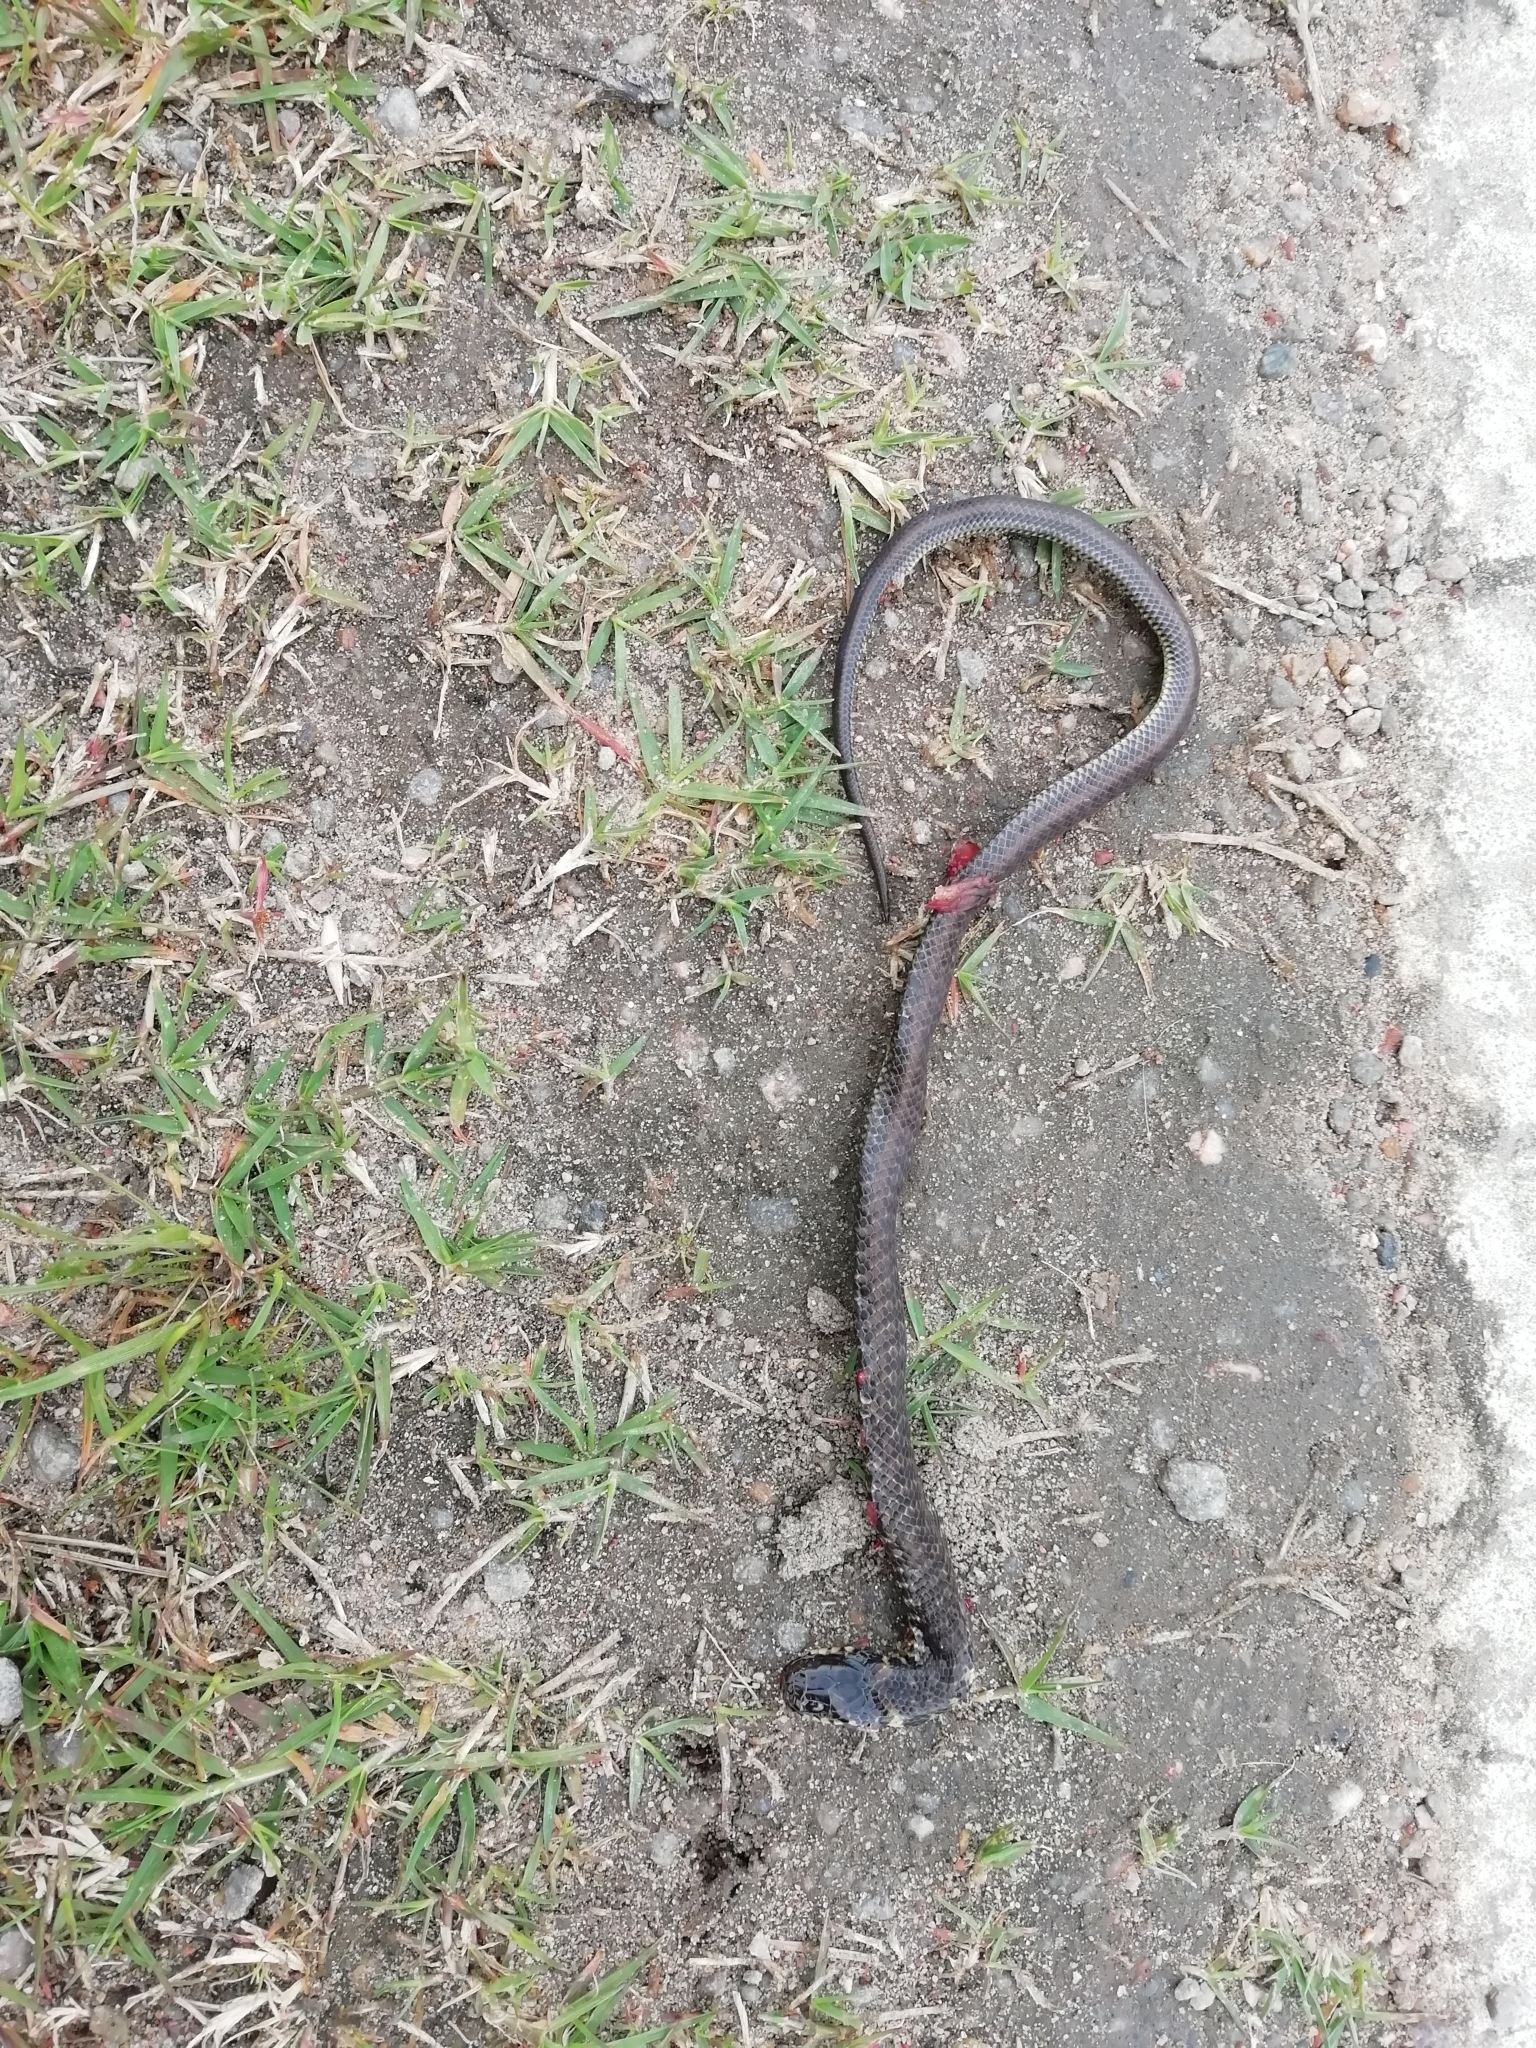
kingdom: Animalia
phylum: Chordata
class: Squamata
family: Colubridae
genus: Erythrolamprus
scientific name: Erythrolamprus semiaureus
